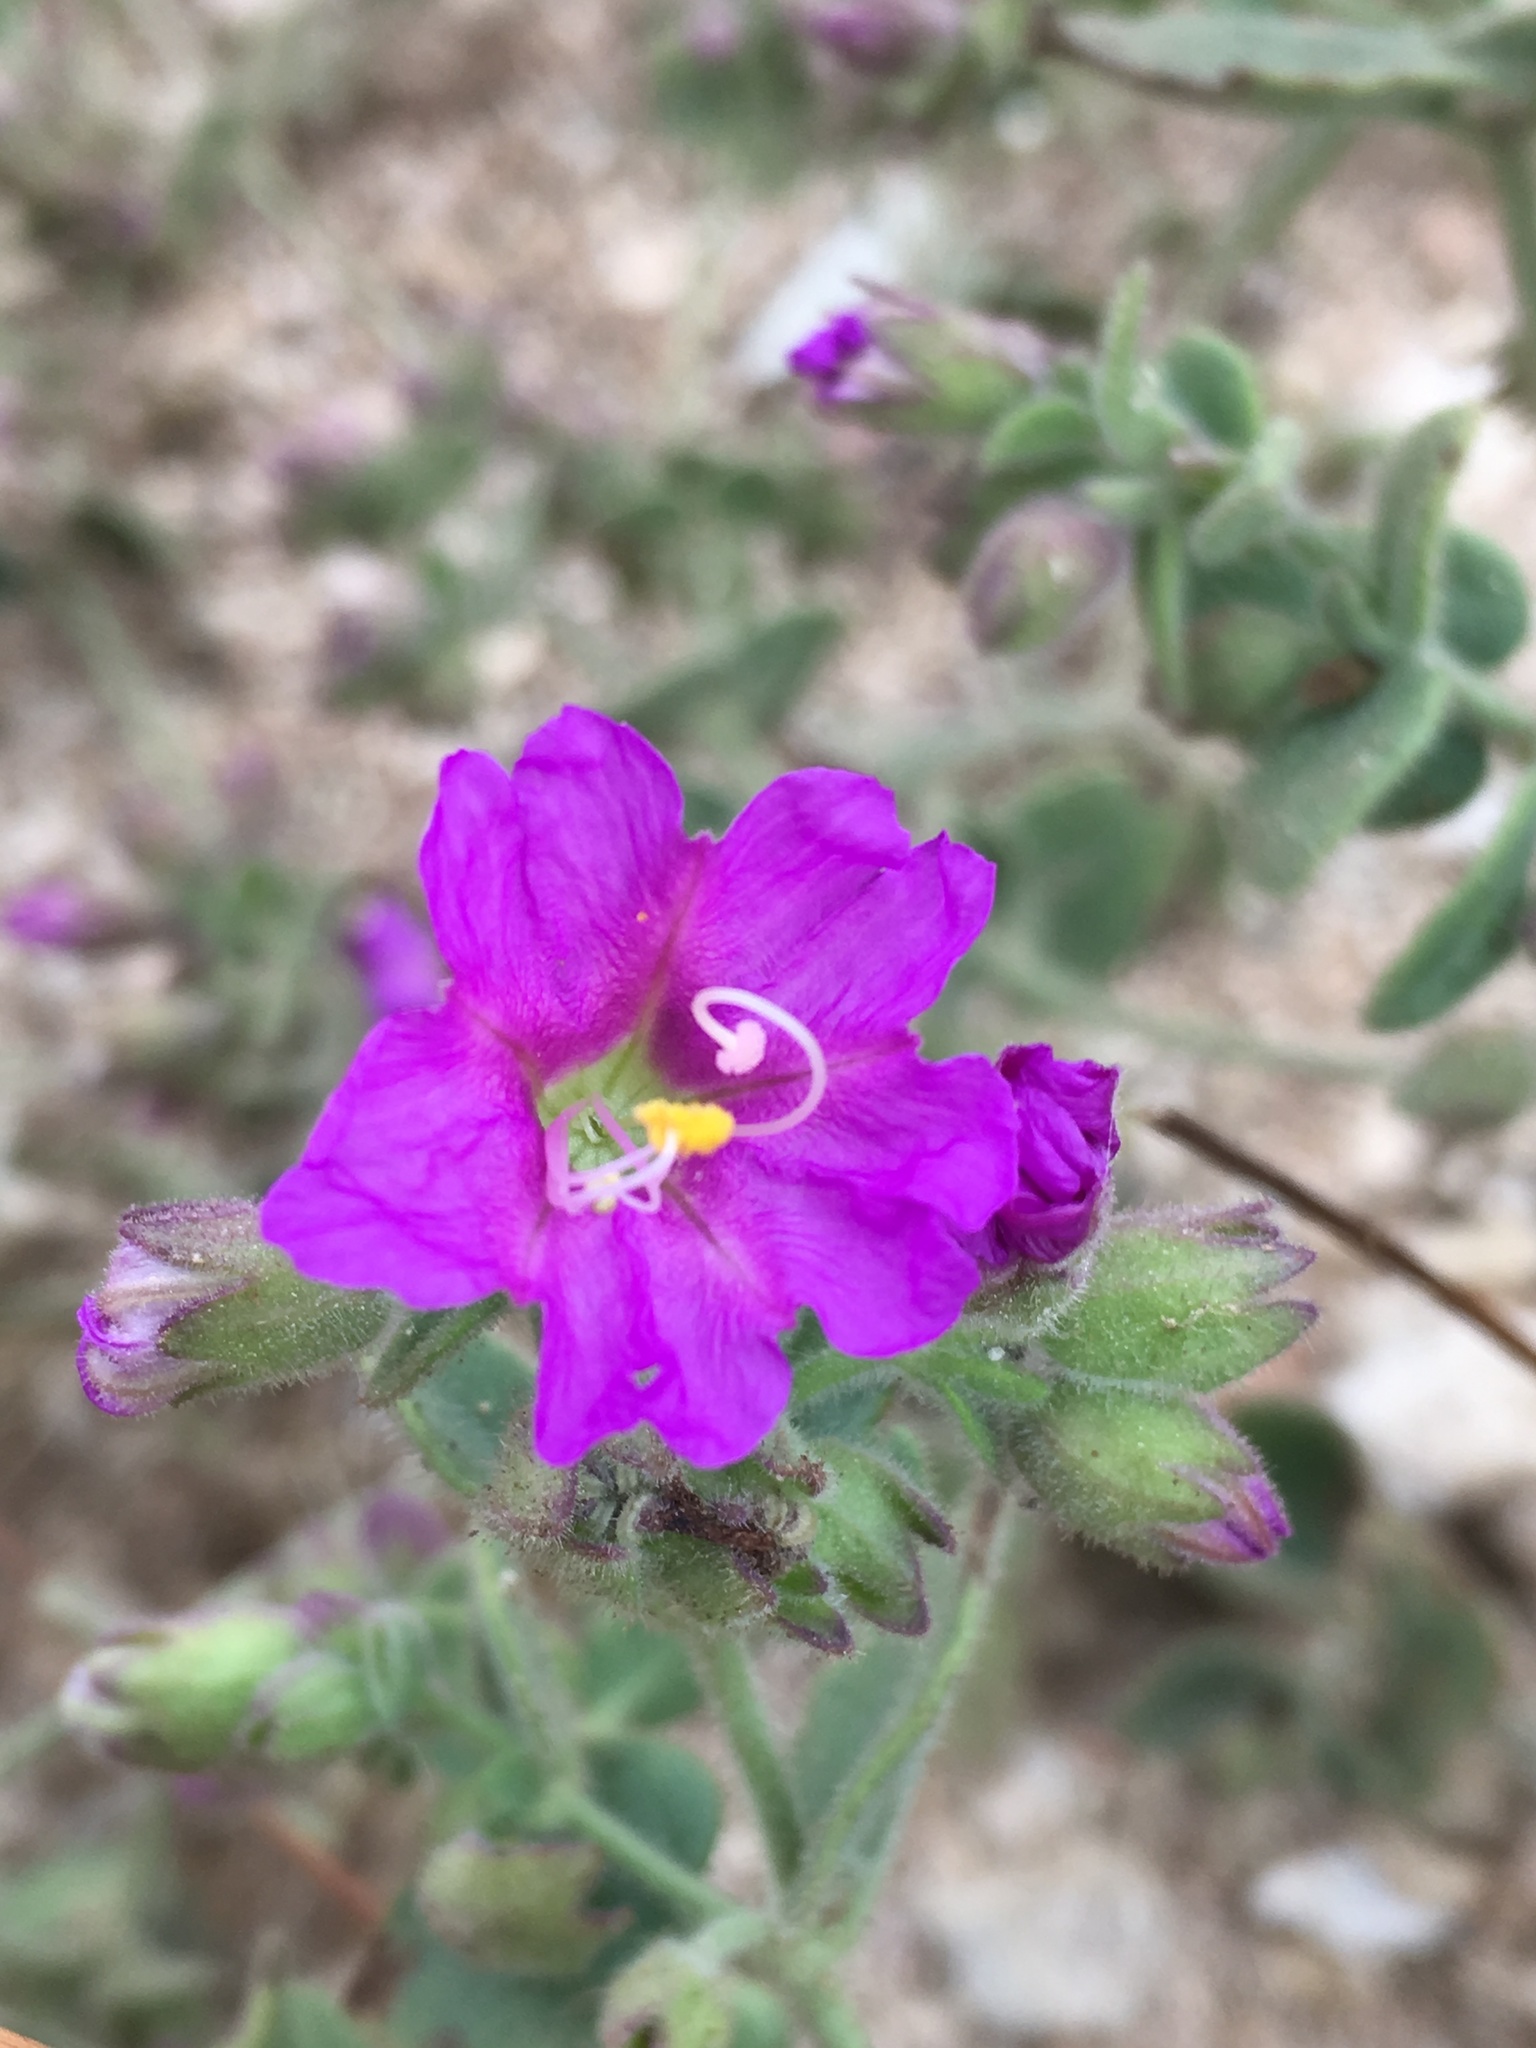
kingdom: Plantae
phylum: Tracheophyta
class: Magnoliopsida
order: Caryophyllales
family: Nyctaginaceae
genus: Mirabilis
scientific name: Mirabilis laevis
